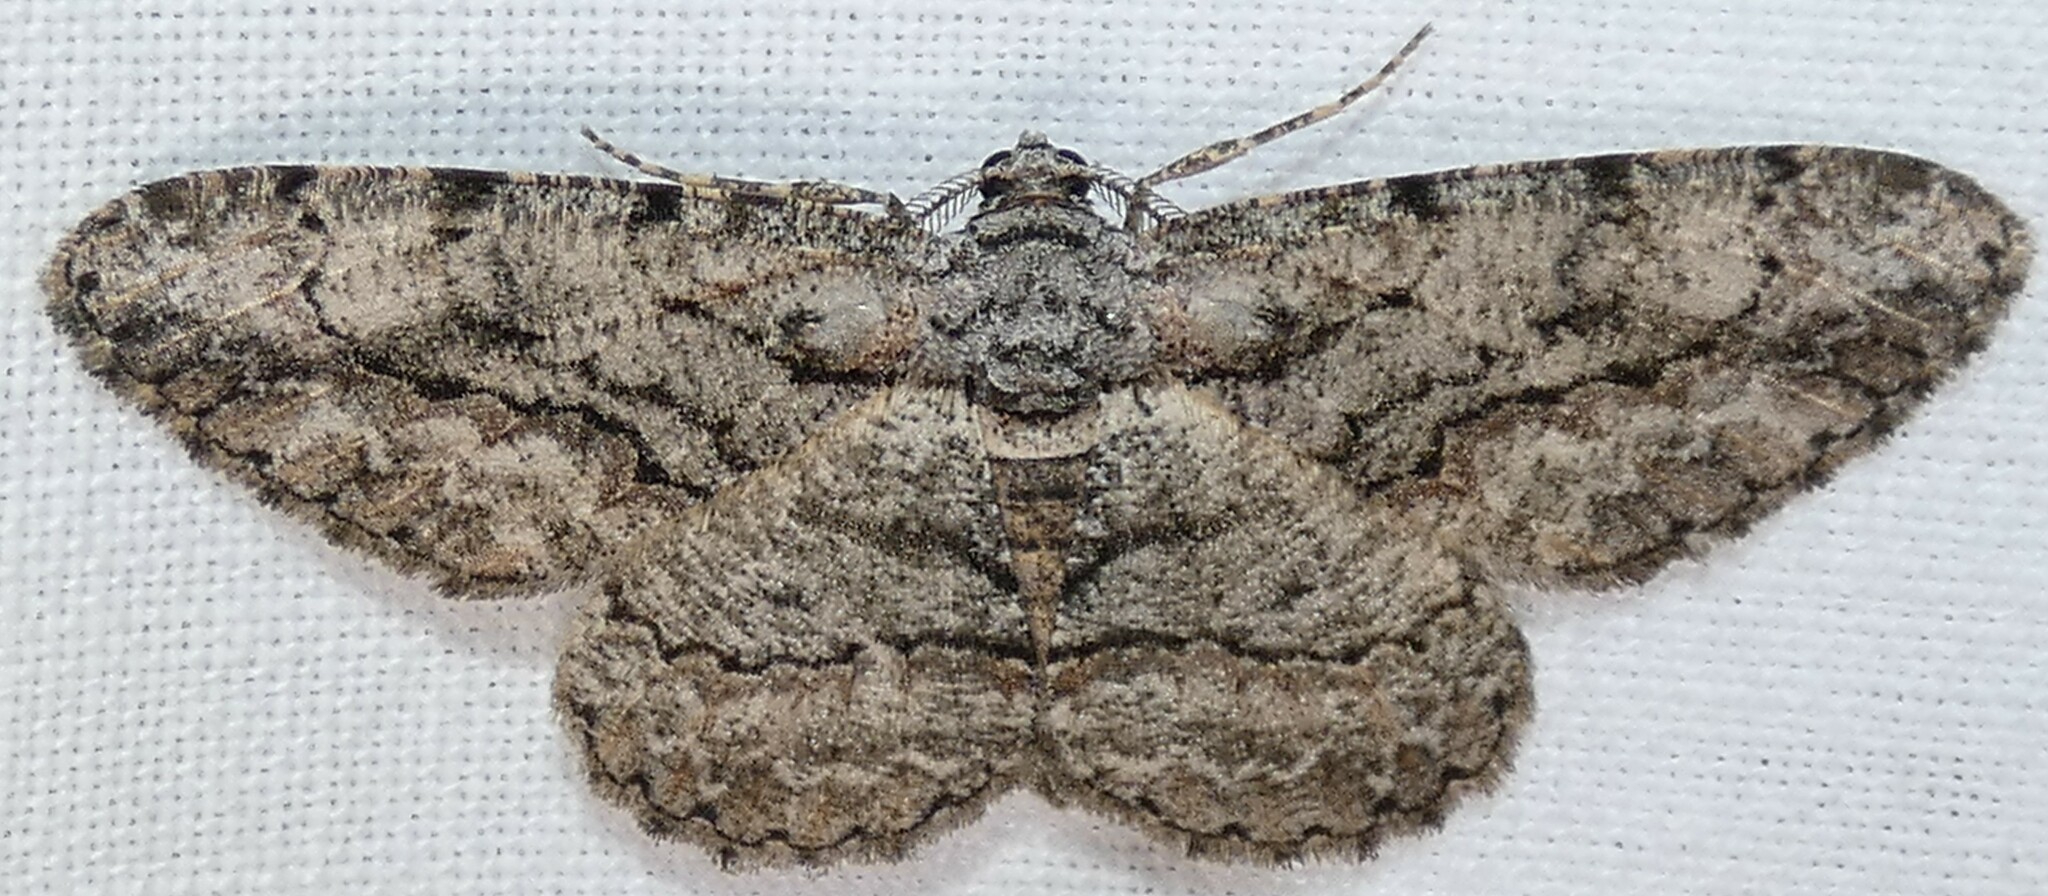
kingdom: Animalia
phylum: Arthropoda
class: Insecta
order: Lepidoptera
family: Geometridae
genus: Anavitrinella
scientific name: Anavitrinella pampinaria
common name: Common gray
